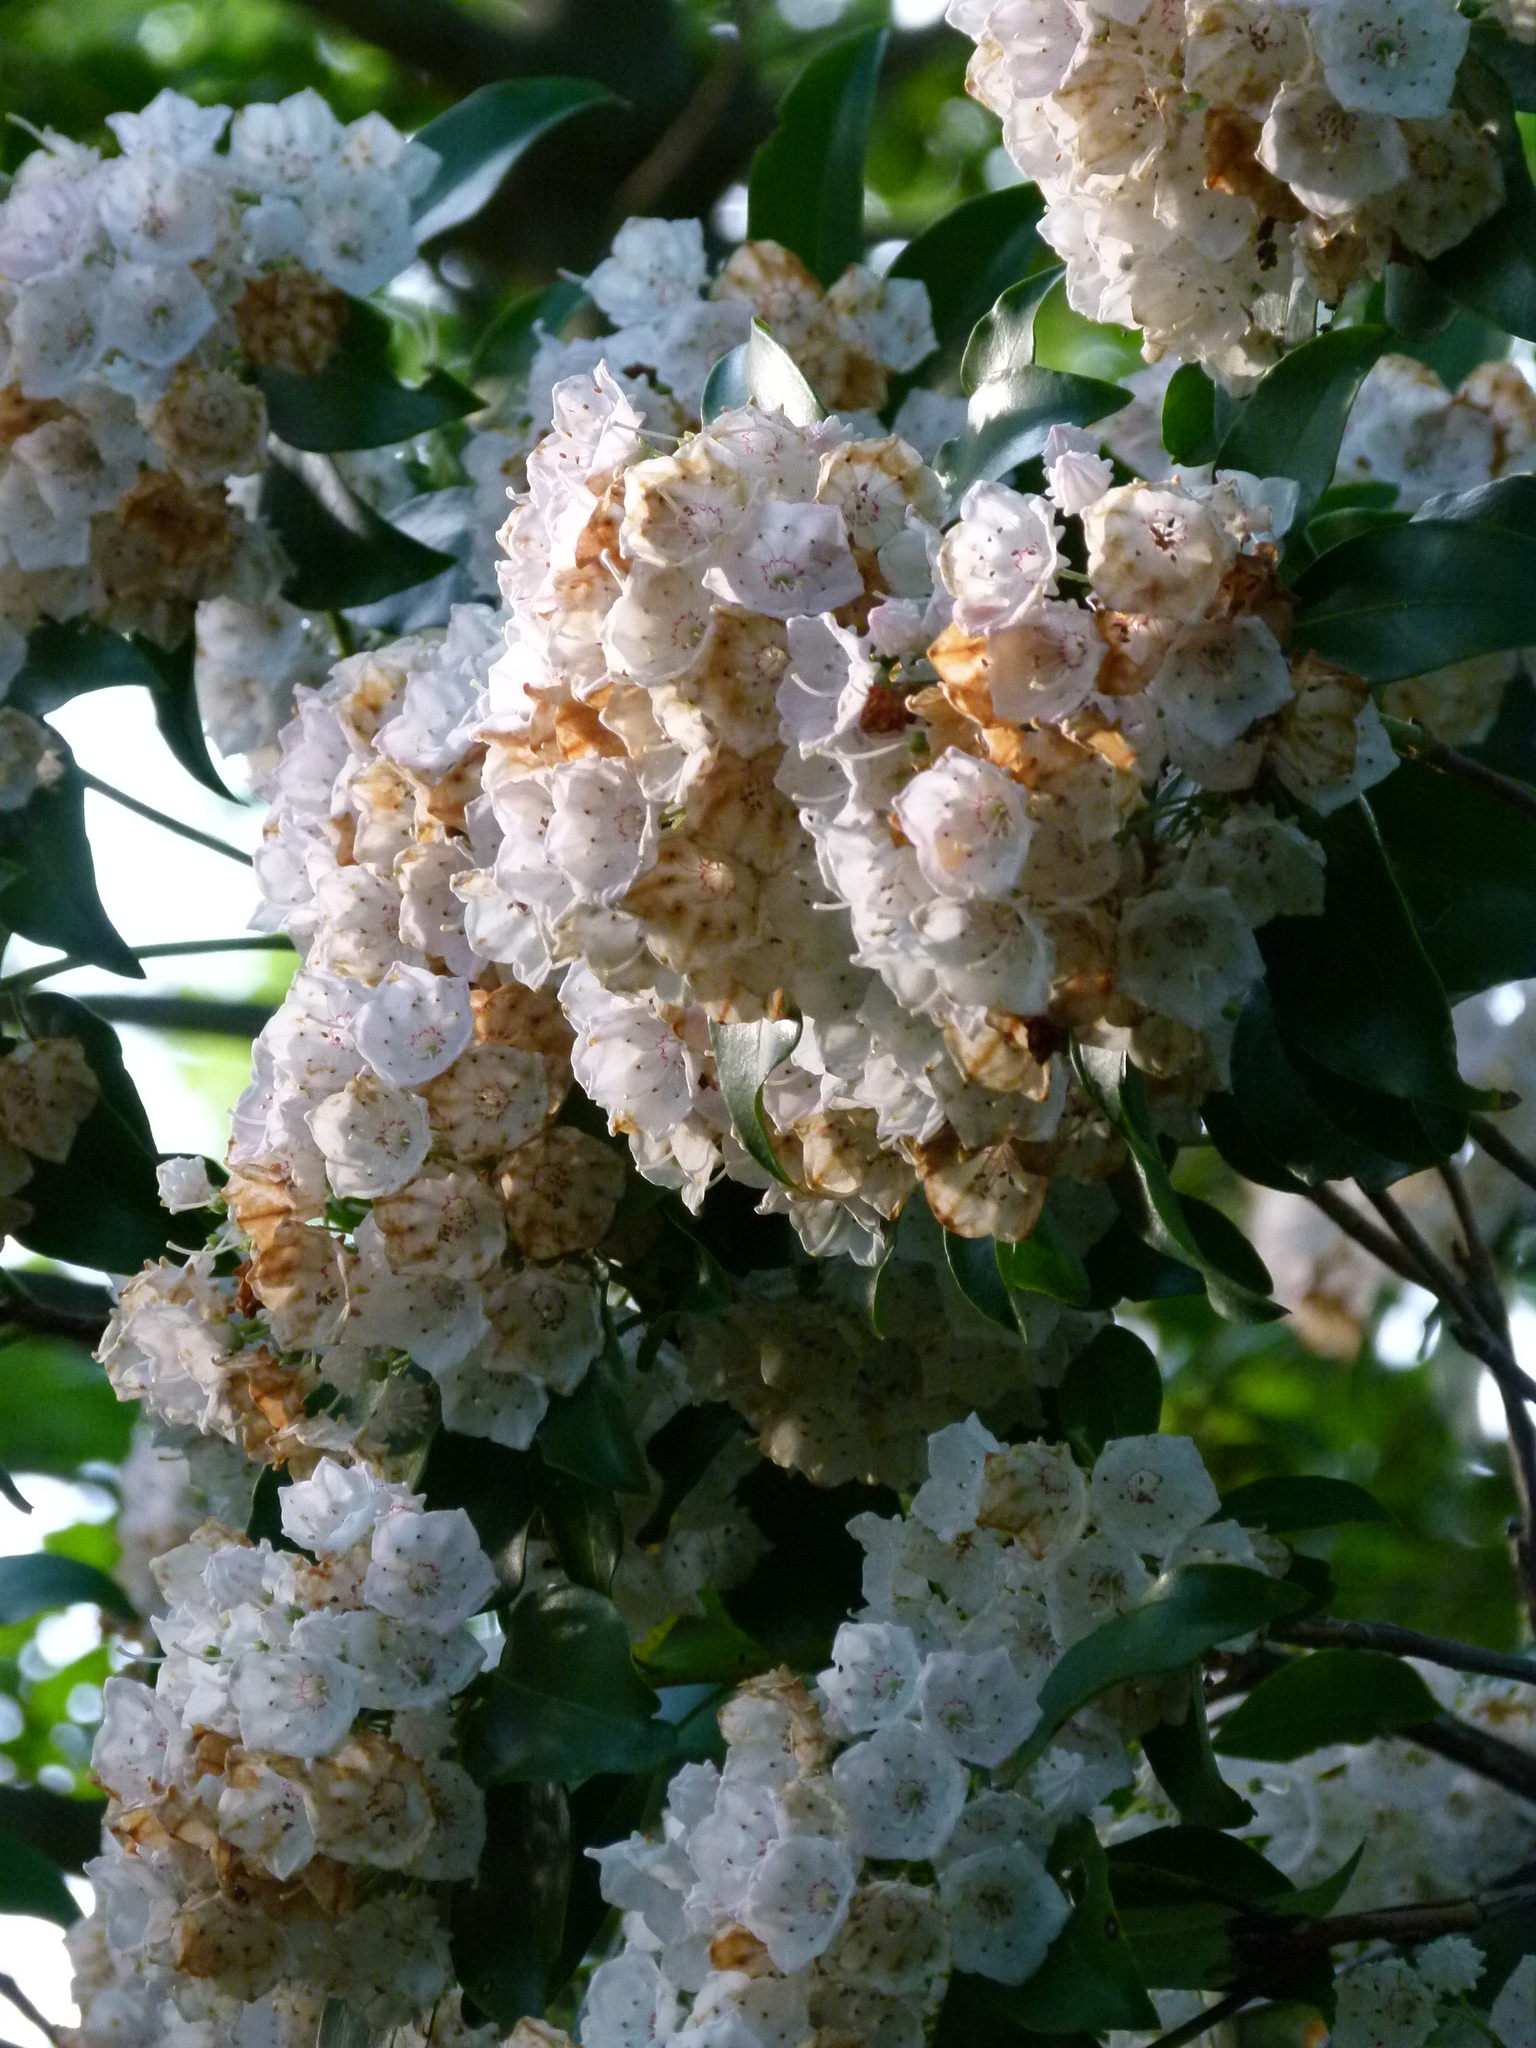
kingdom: Plantae
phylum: Tracheophyta
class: Magnoliopsida
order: Ericales
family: Ericaceae
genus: Kalmia
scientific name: Kalmia latifolia
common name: Mountain-laurel
